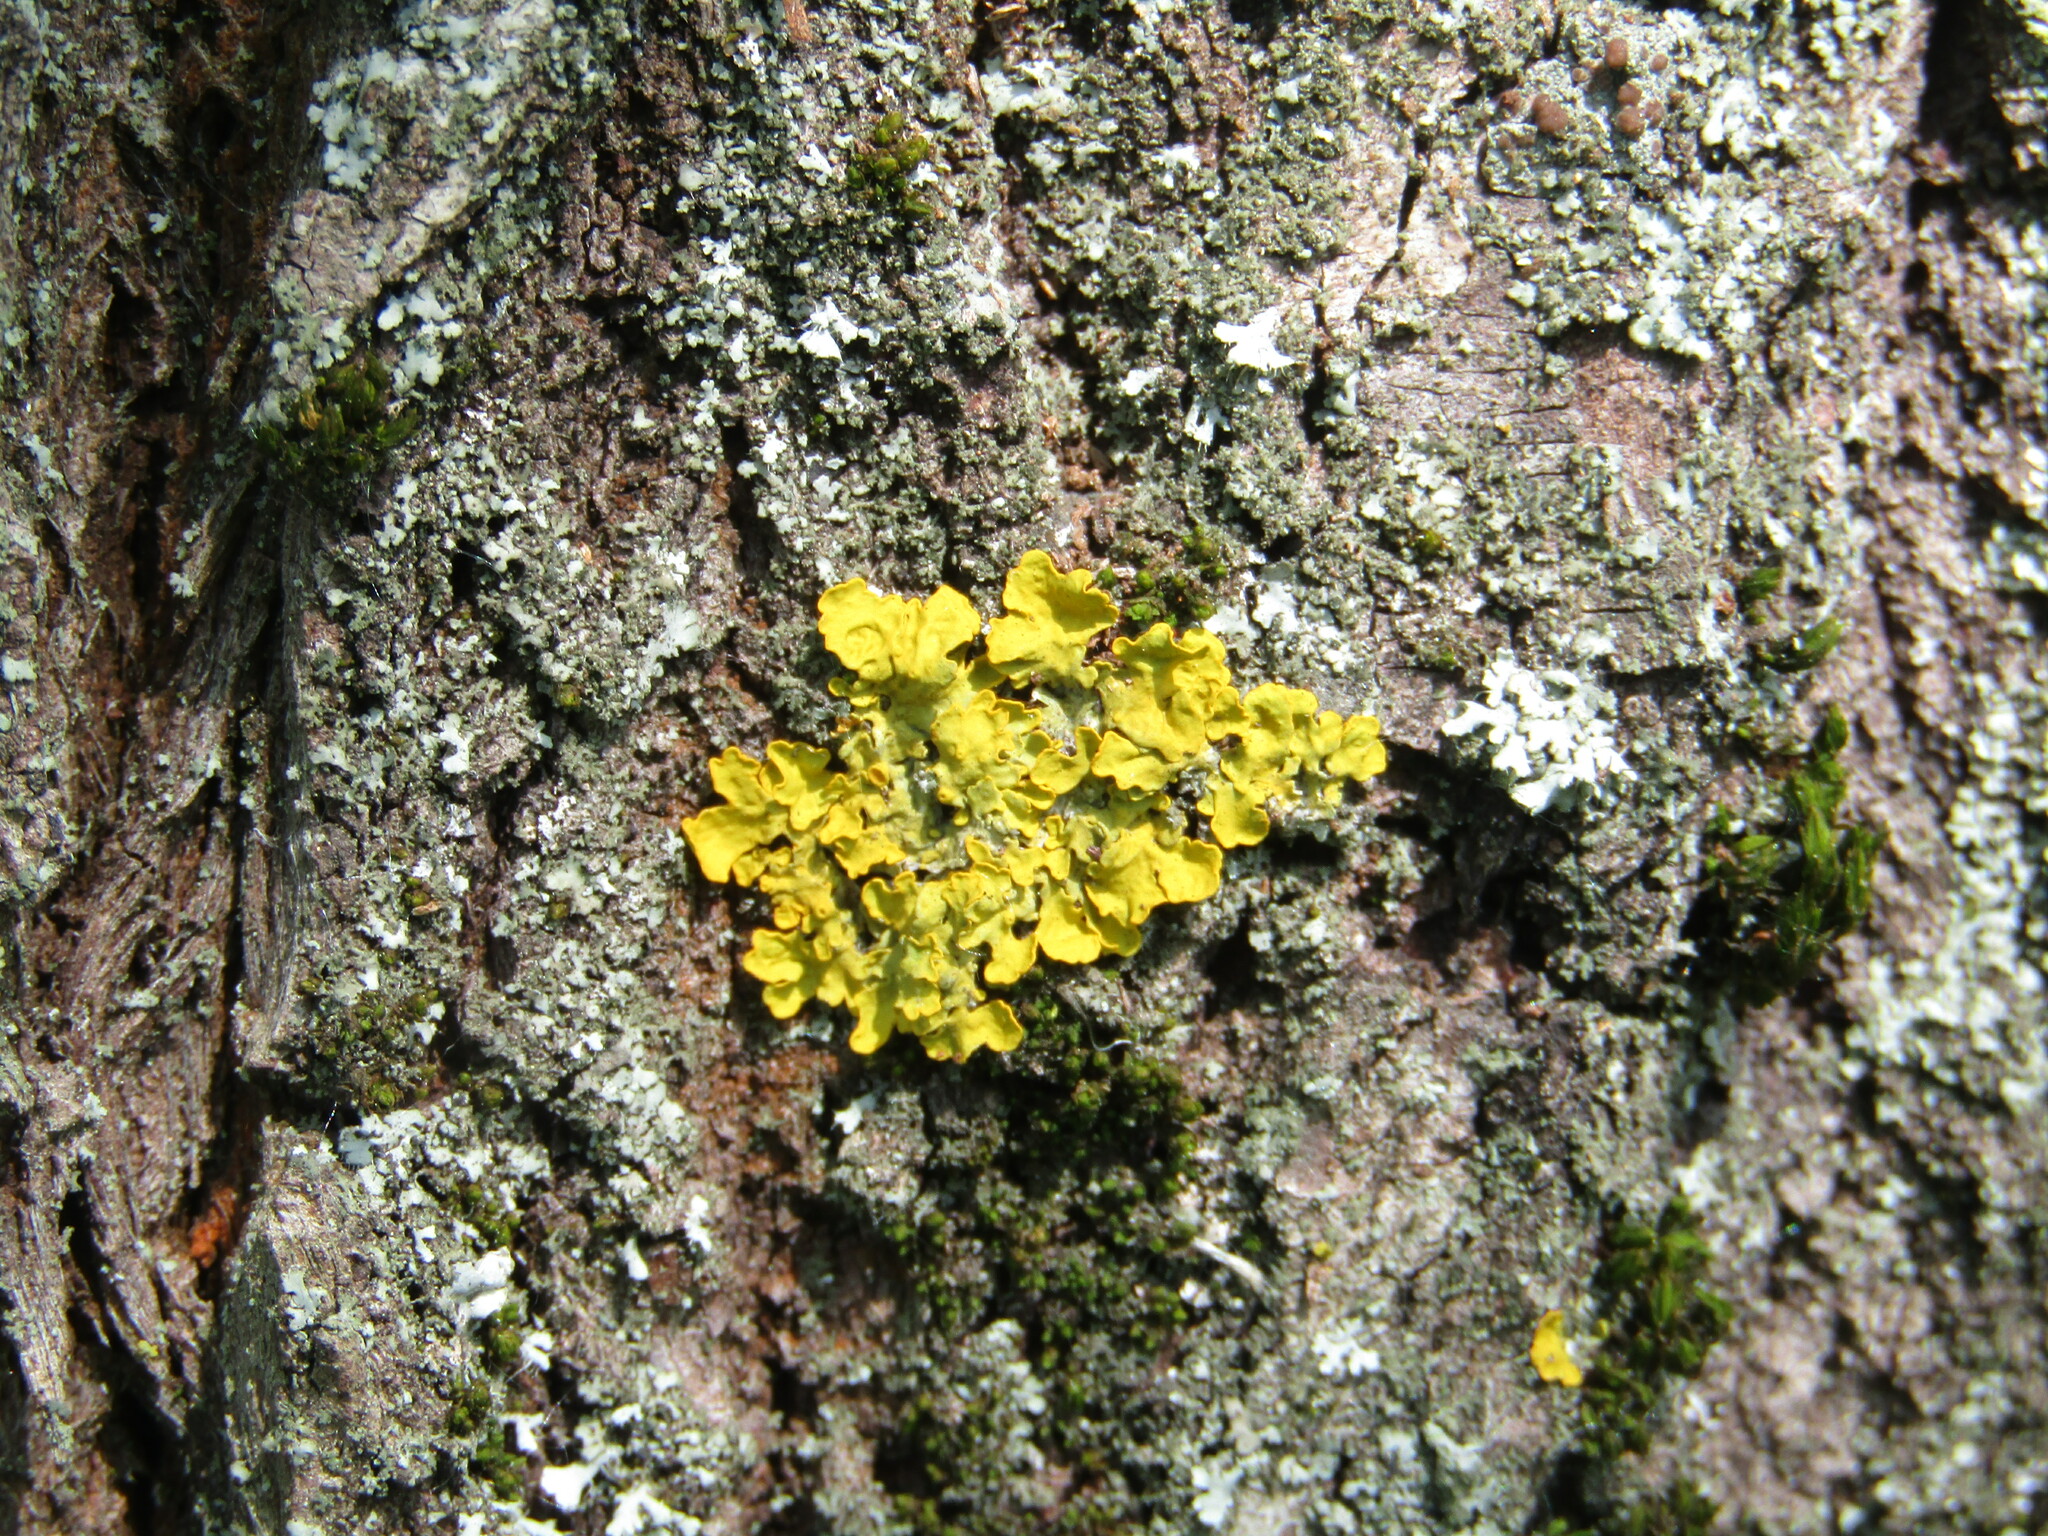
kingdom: Fungi
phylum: Ascomycota
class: Lecanoromycetes
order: Teloschistales
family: Teloschistaceae
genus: Xanthoria
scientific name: Xanthoria parietina
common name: Common orange lichen
